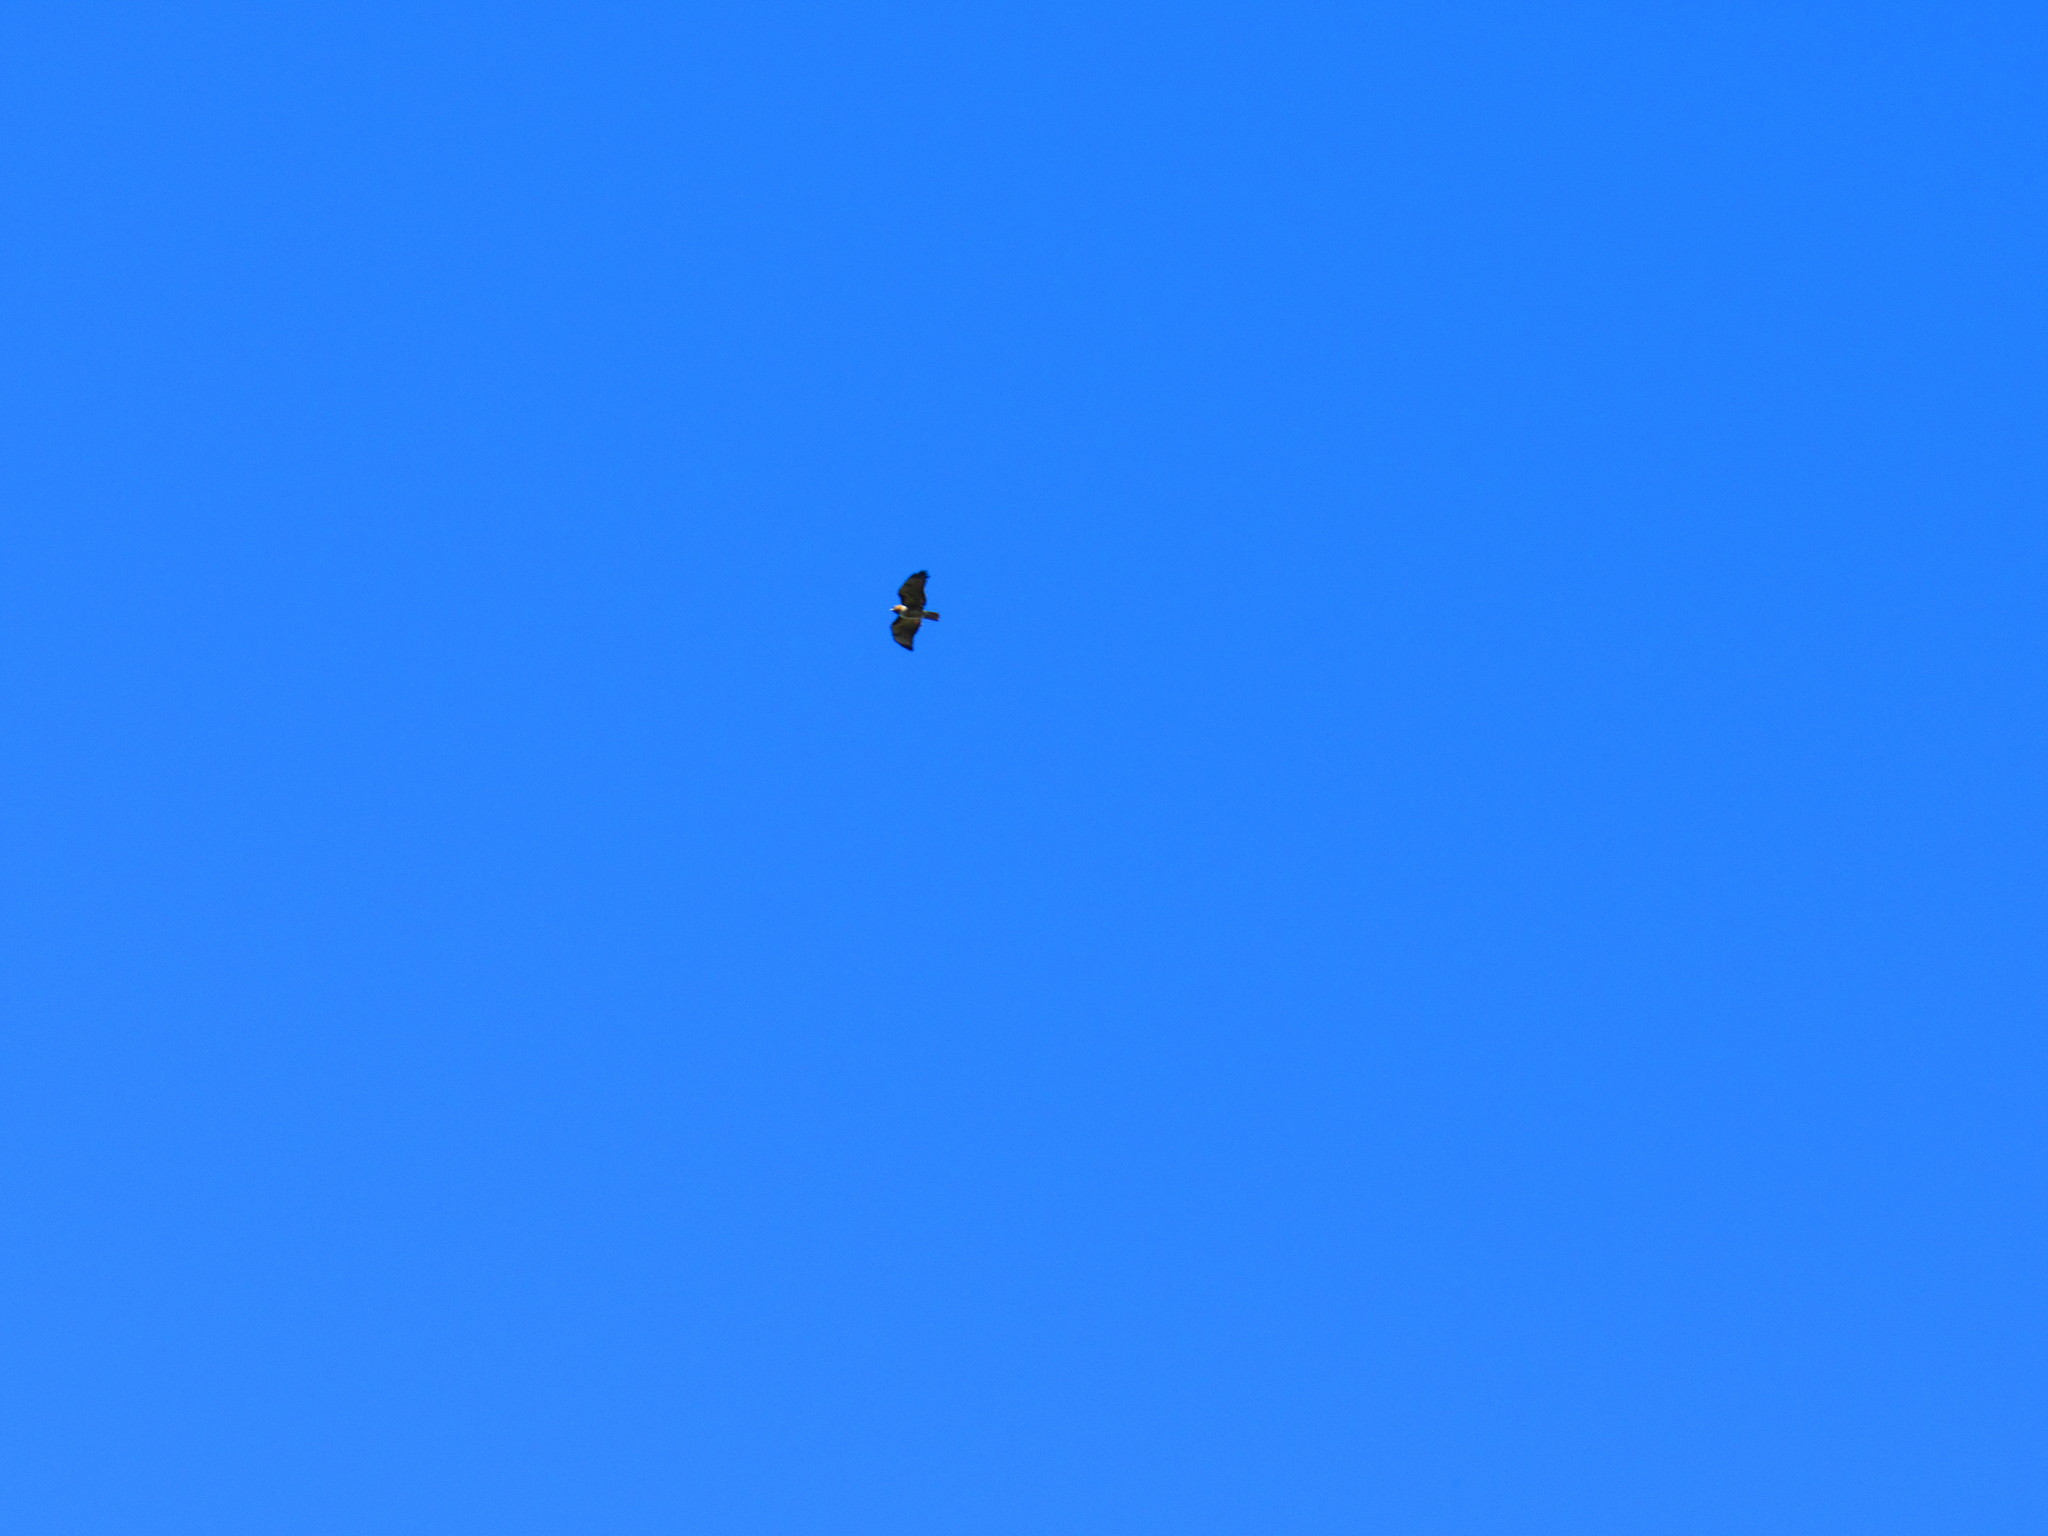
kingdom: Animalia
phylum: Chordata
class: Aves
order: Accipitriformes
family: Accipitridae
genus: Buteo
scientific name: Buteo jamaicensis
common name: Red-tailed hawk
